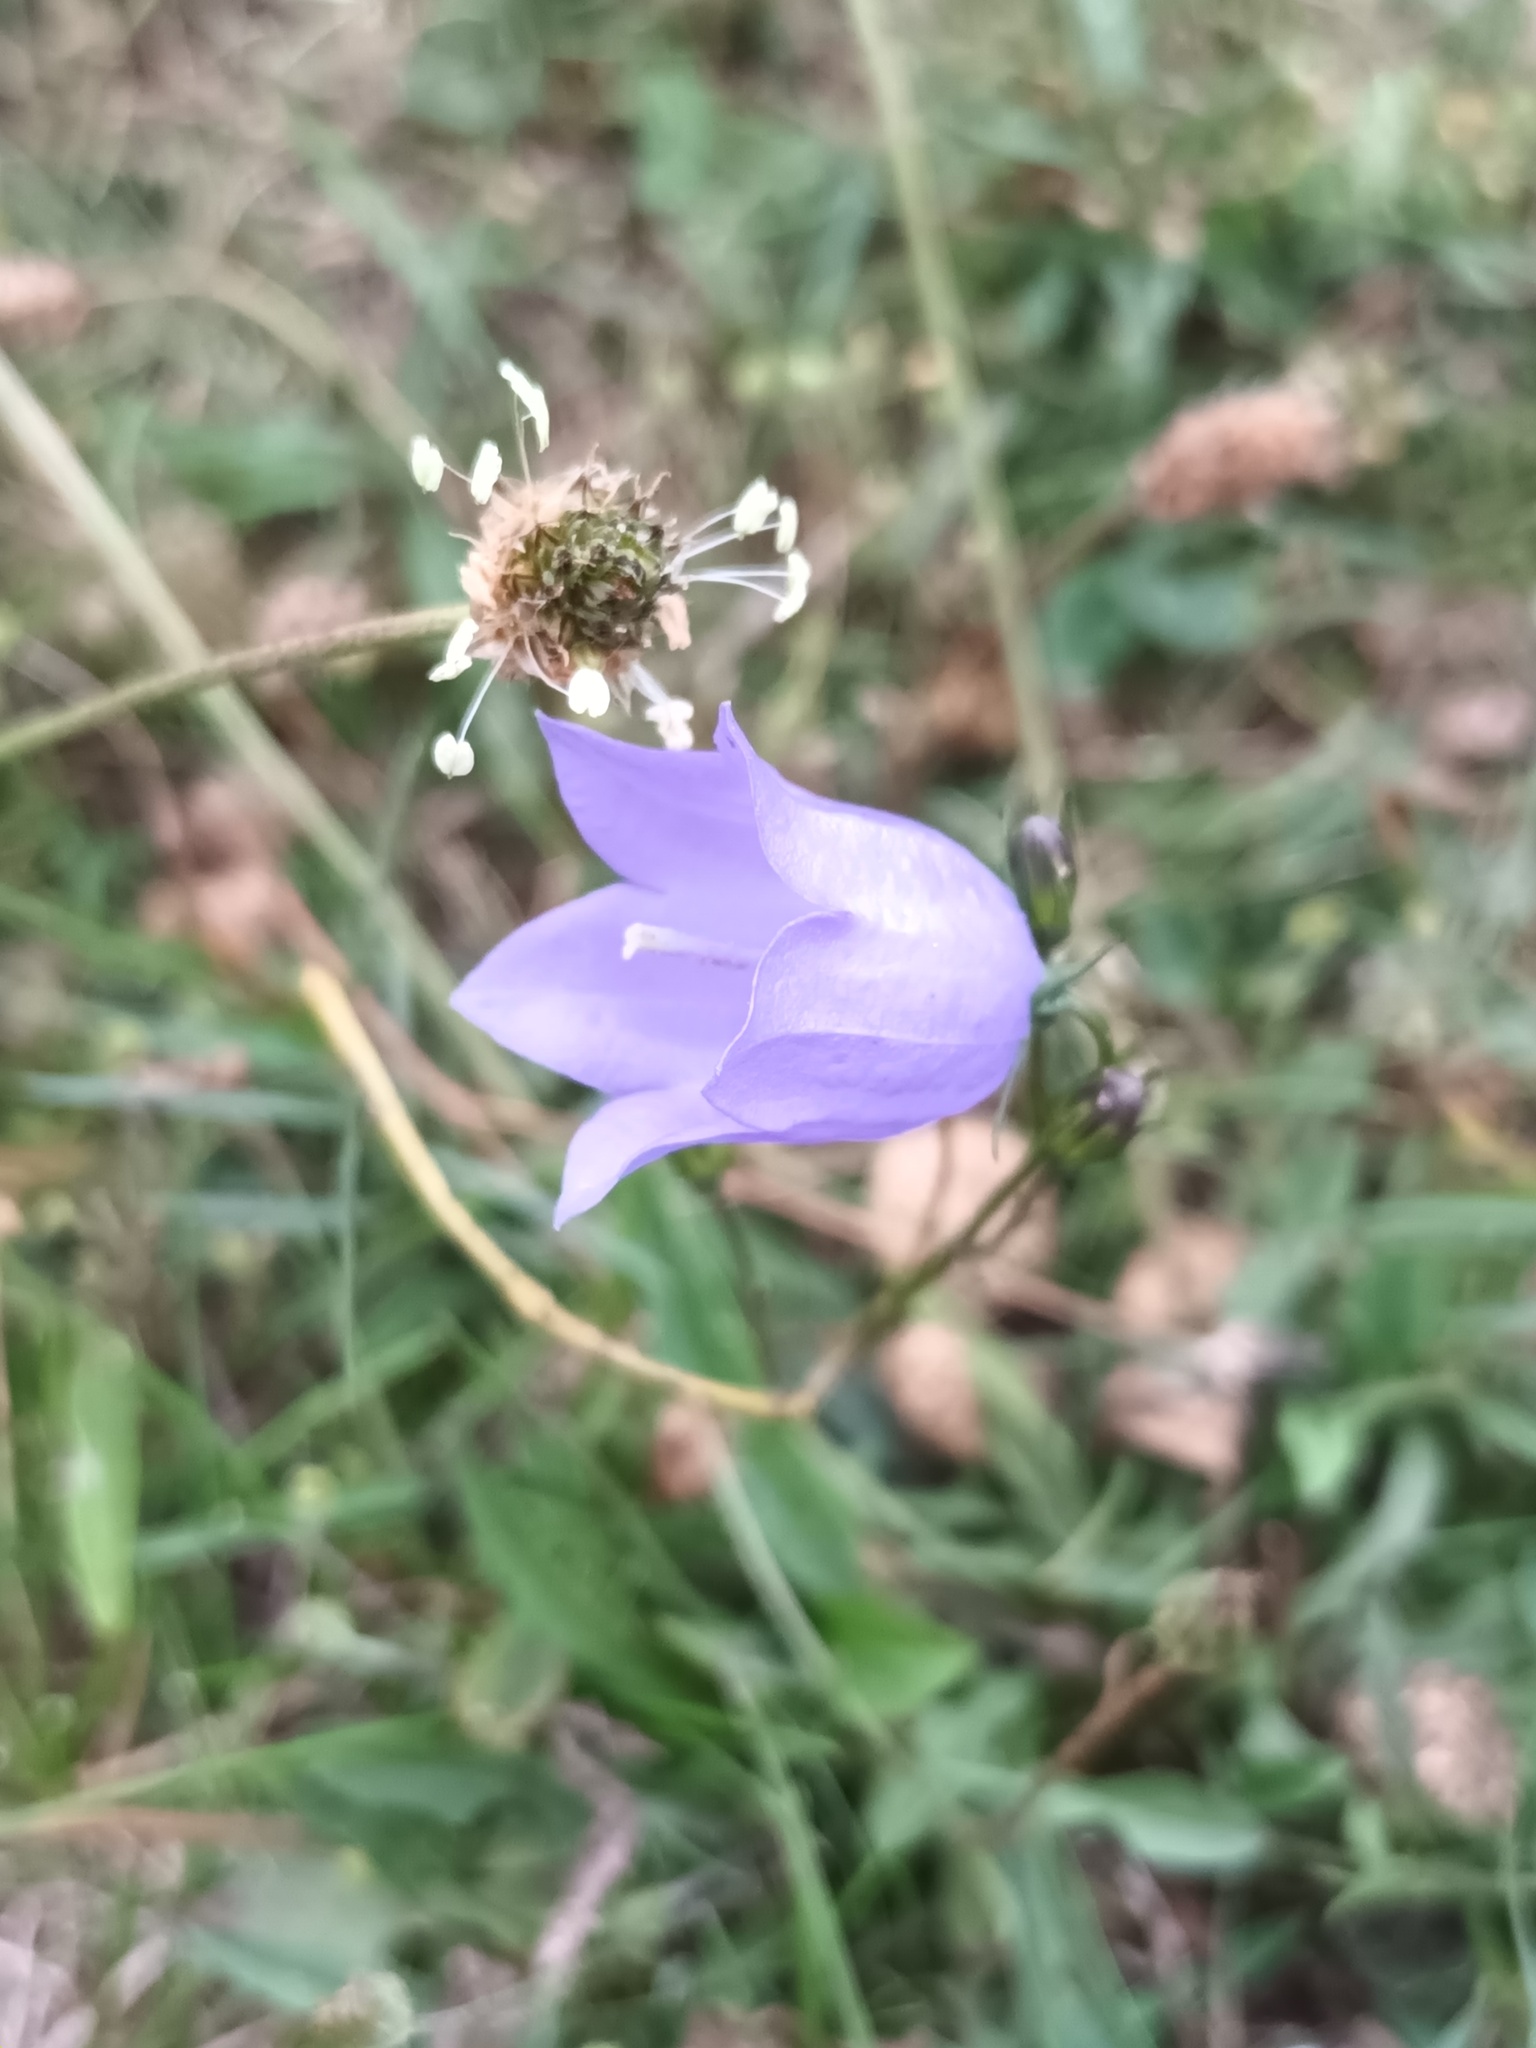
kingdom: Plantae
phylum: Tracheophyta
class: Magnoliopsida
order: Asterales
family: Campanulaceae
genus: Campanula
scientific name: Campanula rotundifolia
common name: Harebell
